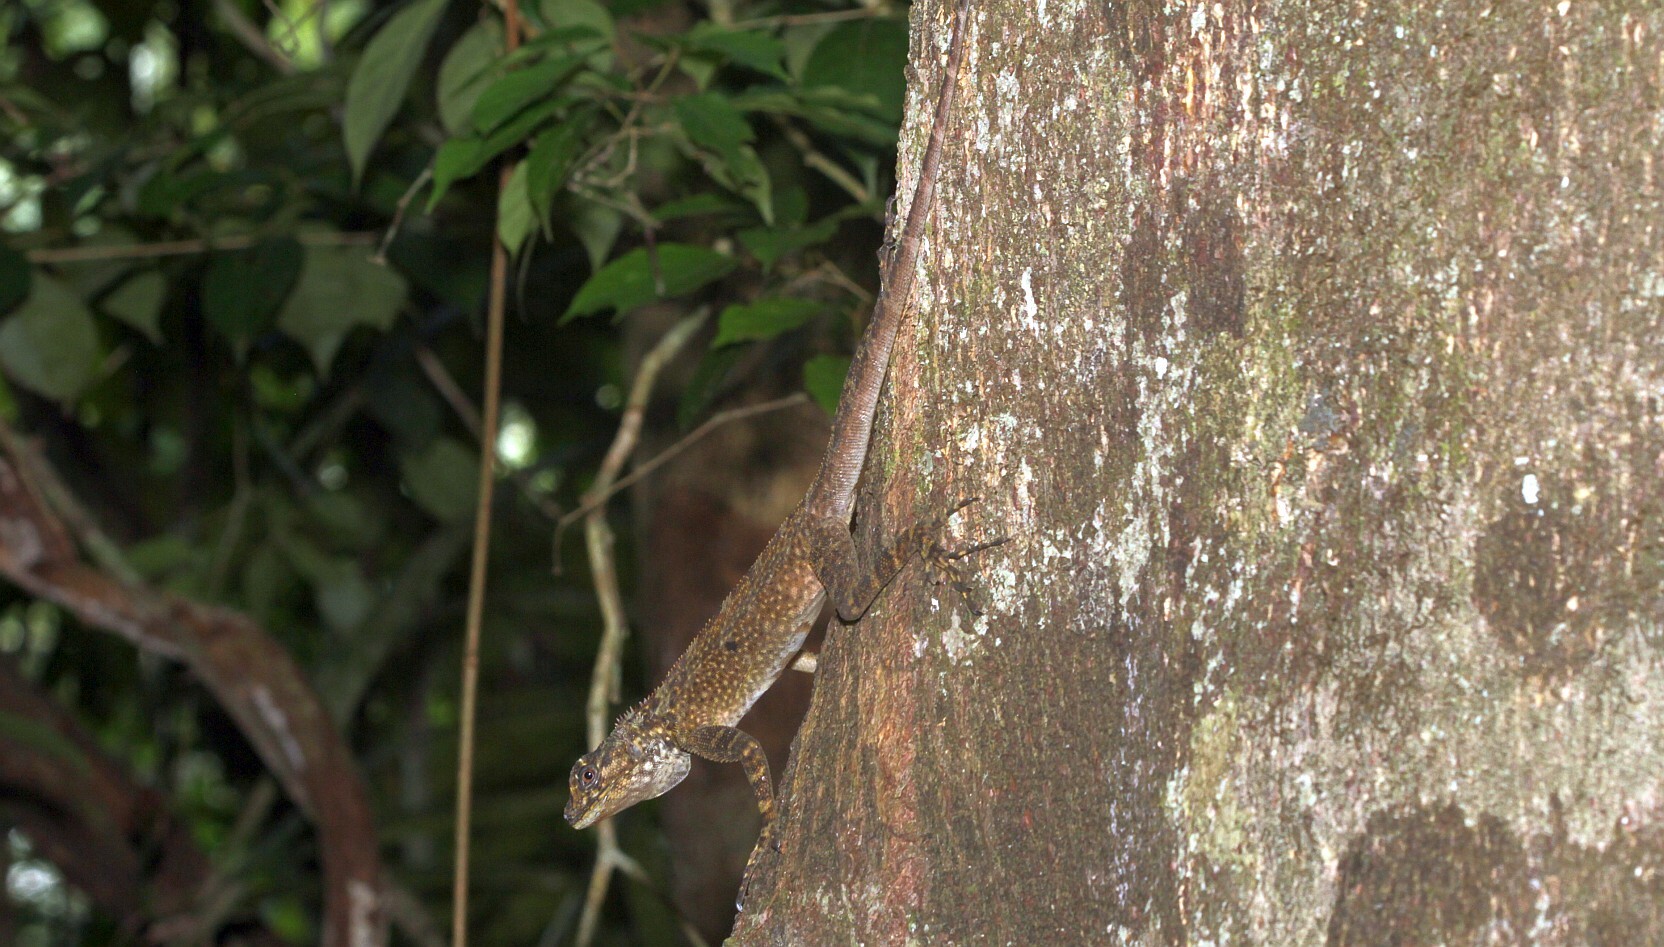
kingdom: Animalia
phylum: Chordata
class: Squamata
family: Tropiduridae
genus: Plica
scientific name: Plica plica
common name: Tree runner
